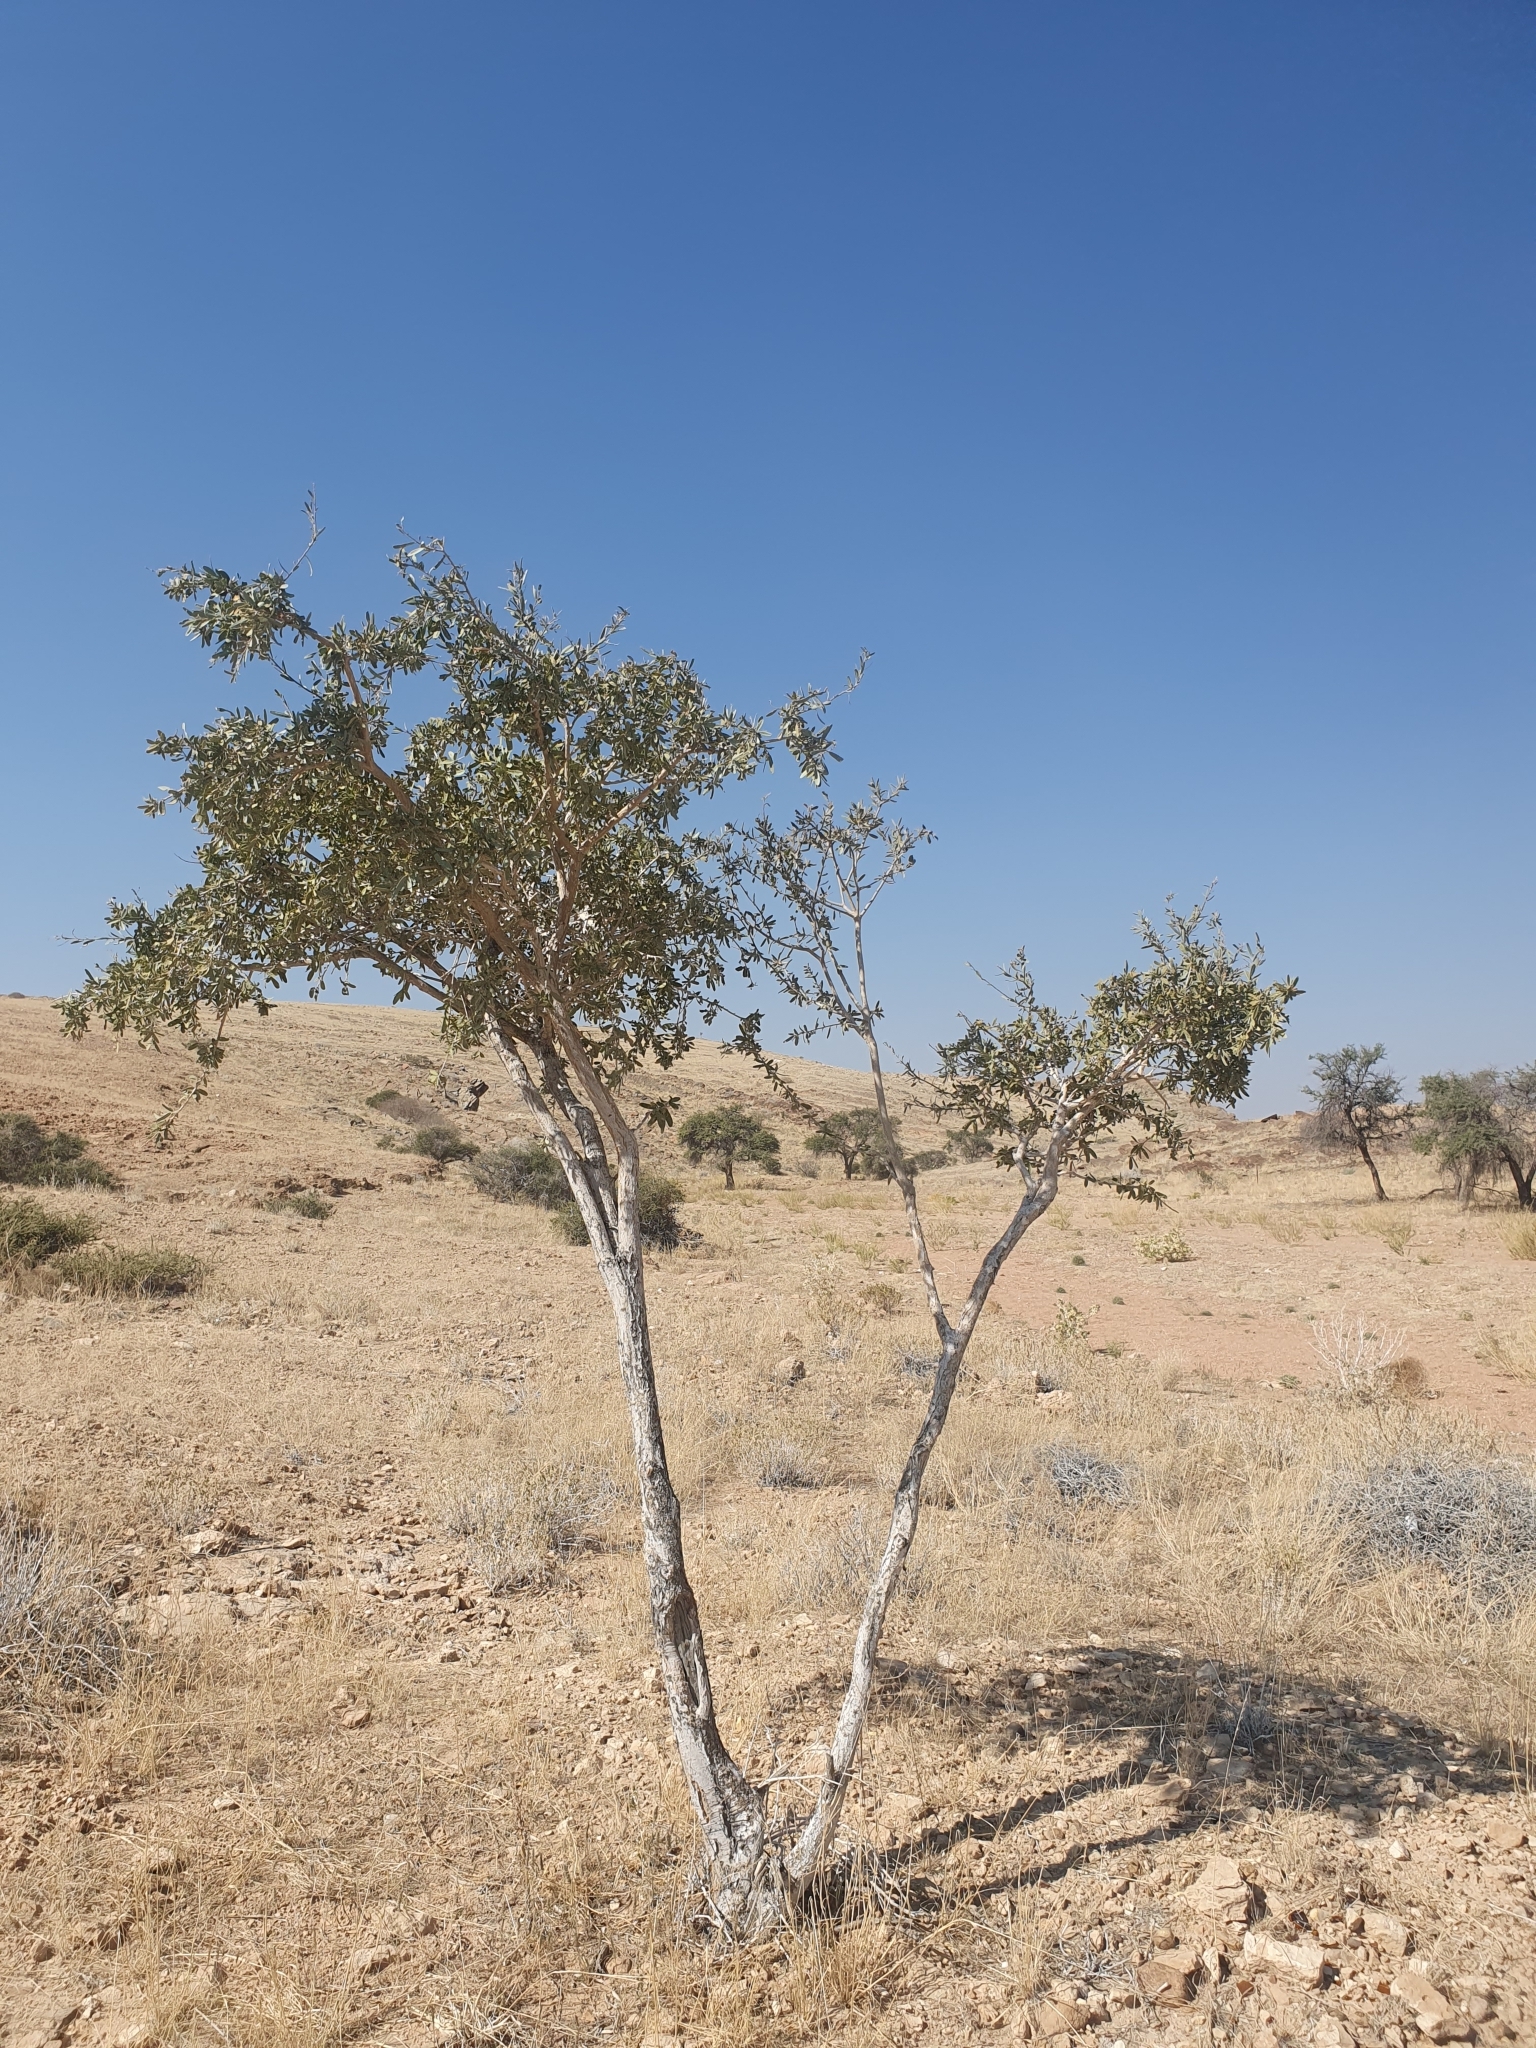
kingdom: Plantae
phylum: Tracheophyta
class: Magnoliopsida
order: Brassicales
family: Capparaceae
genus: Boscia
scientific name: Boscia albitrunca
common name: Caper bush
